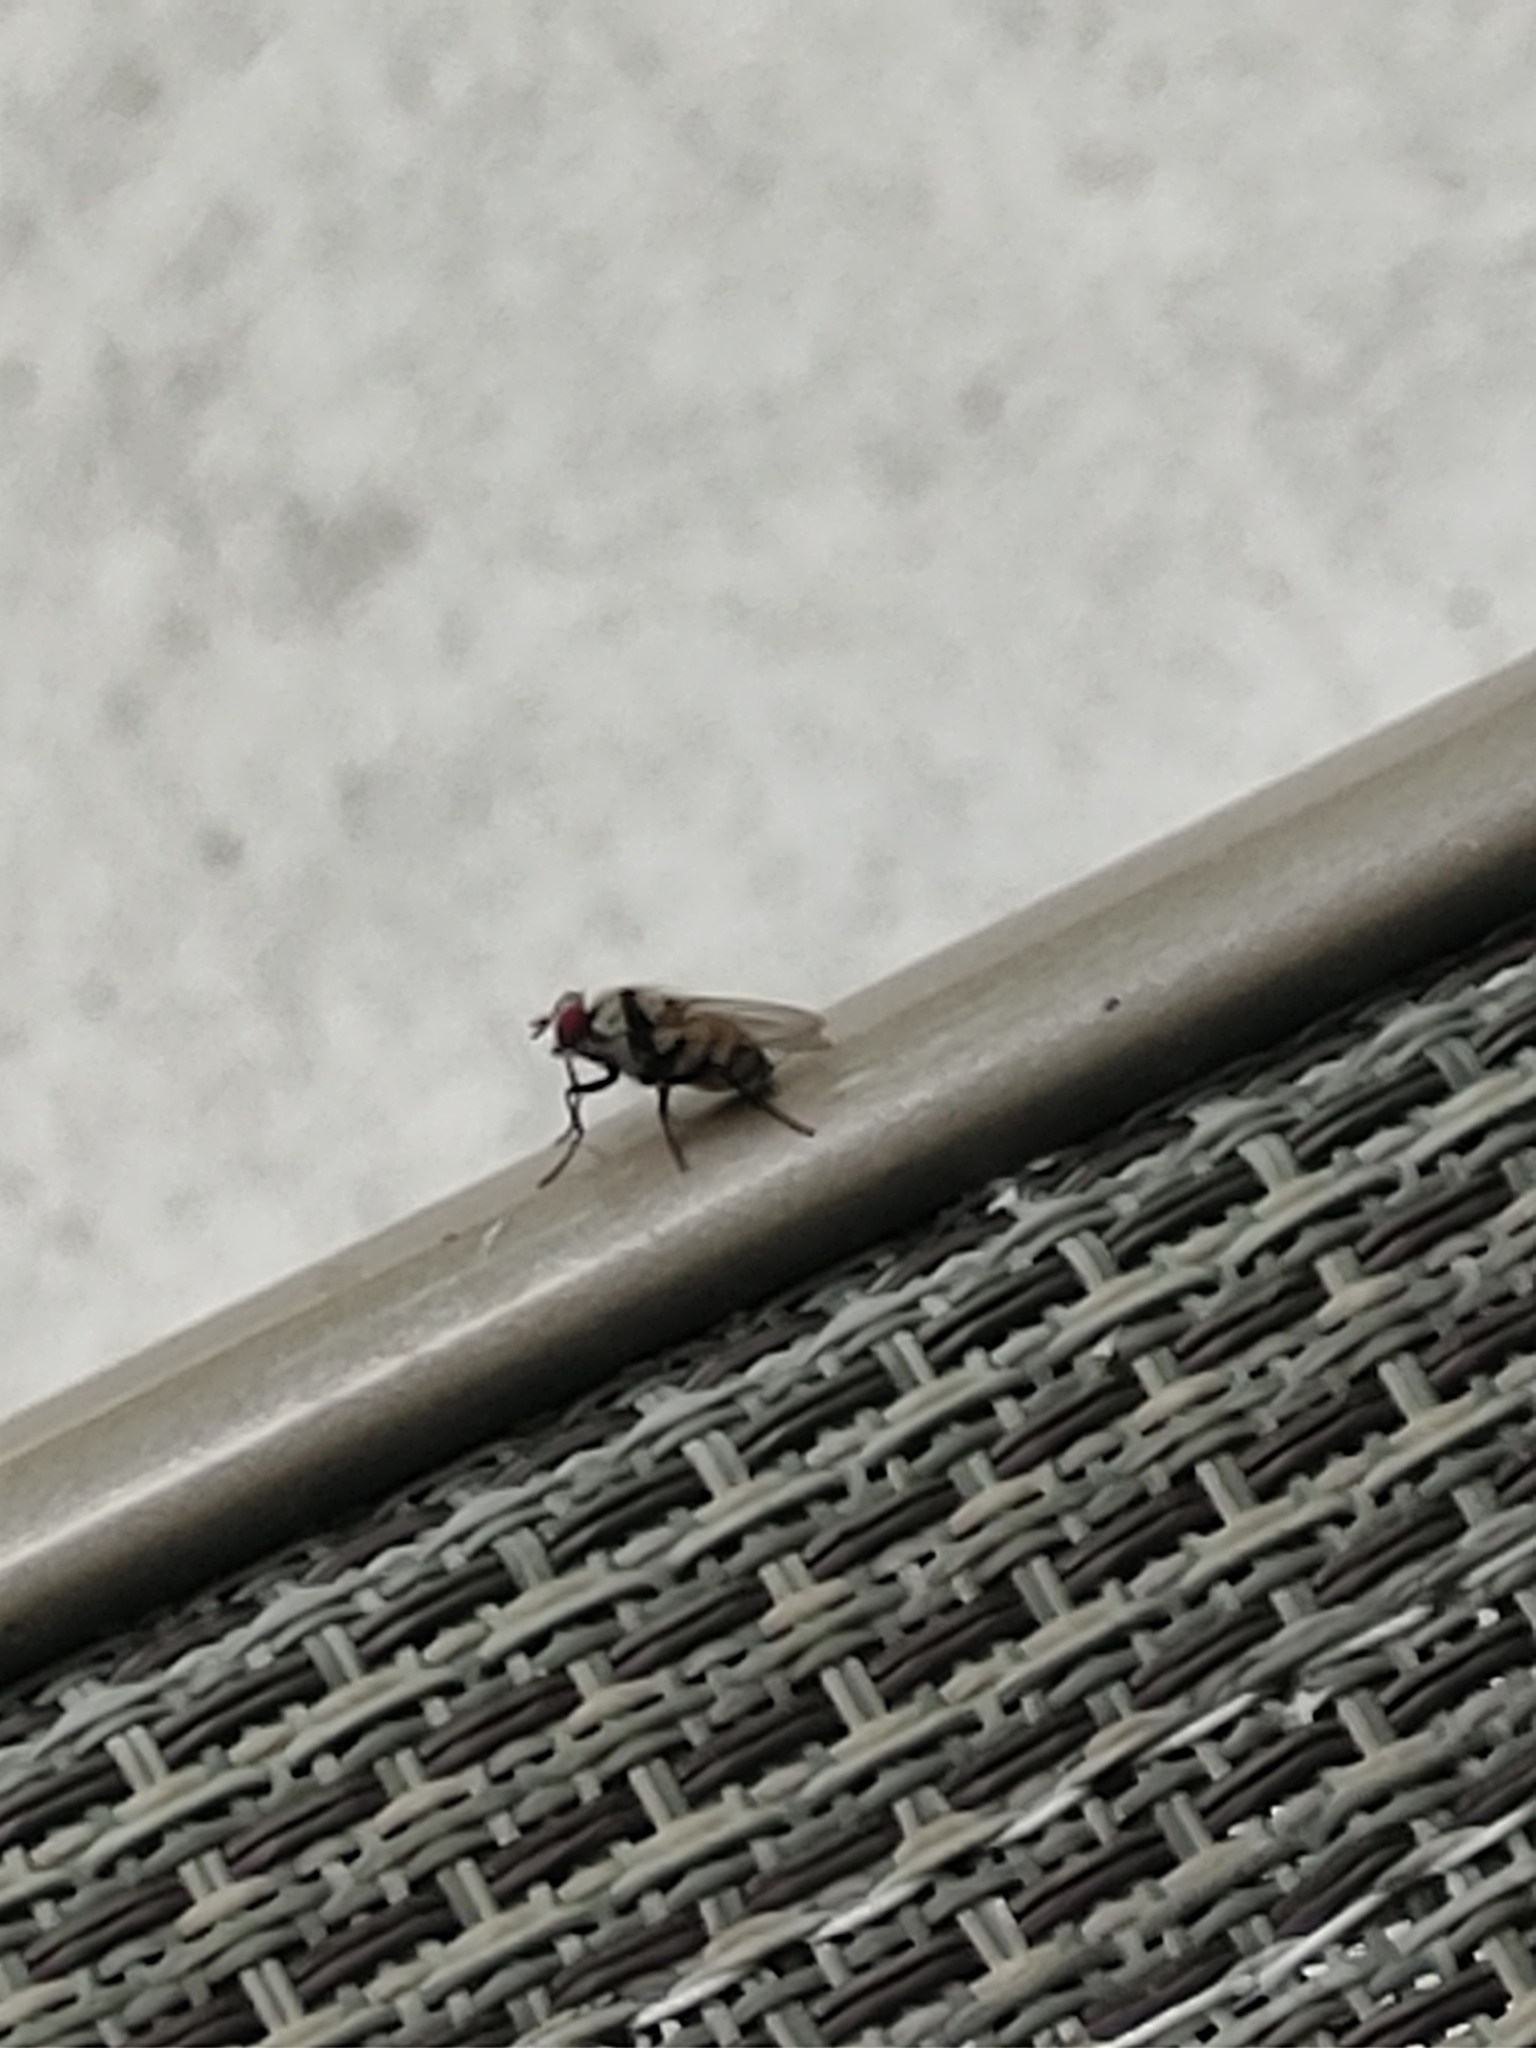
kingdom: Animalia
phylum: Arthropoda
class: Insecta
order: Diptera
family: Anthomyiidae
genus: Anthomyia
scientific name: Anthomyia illocata
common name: Fly
